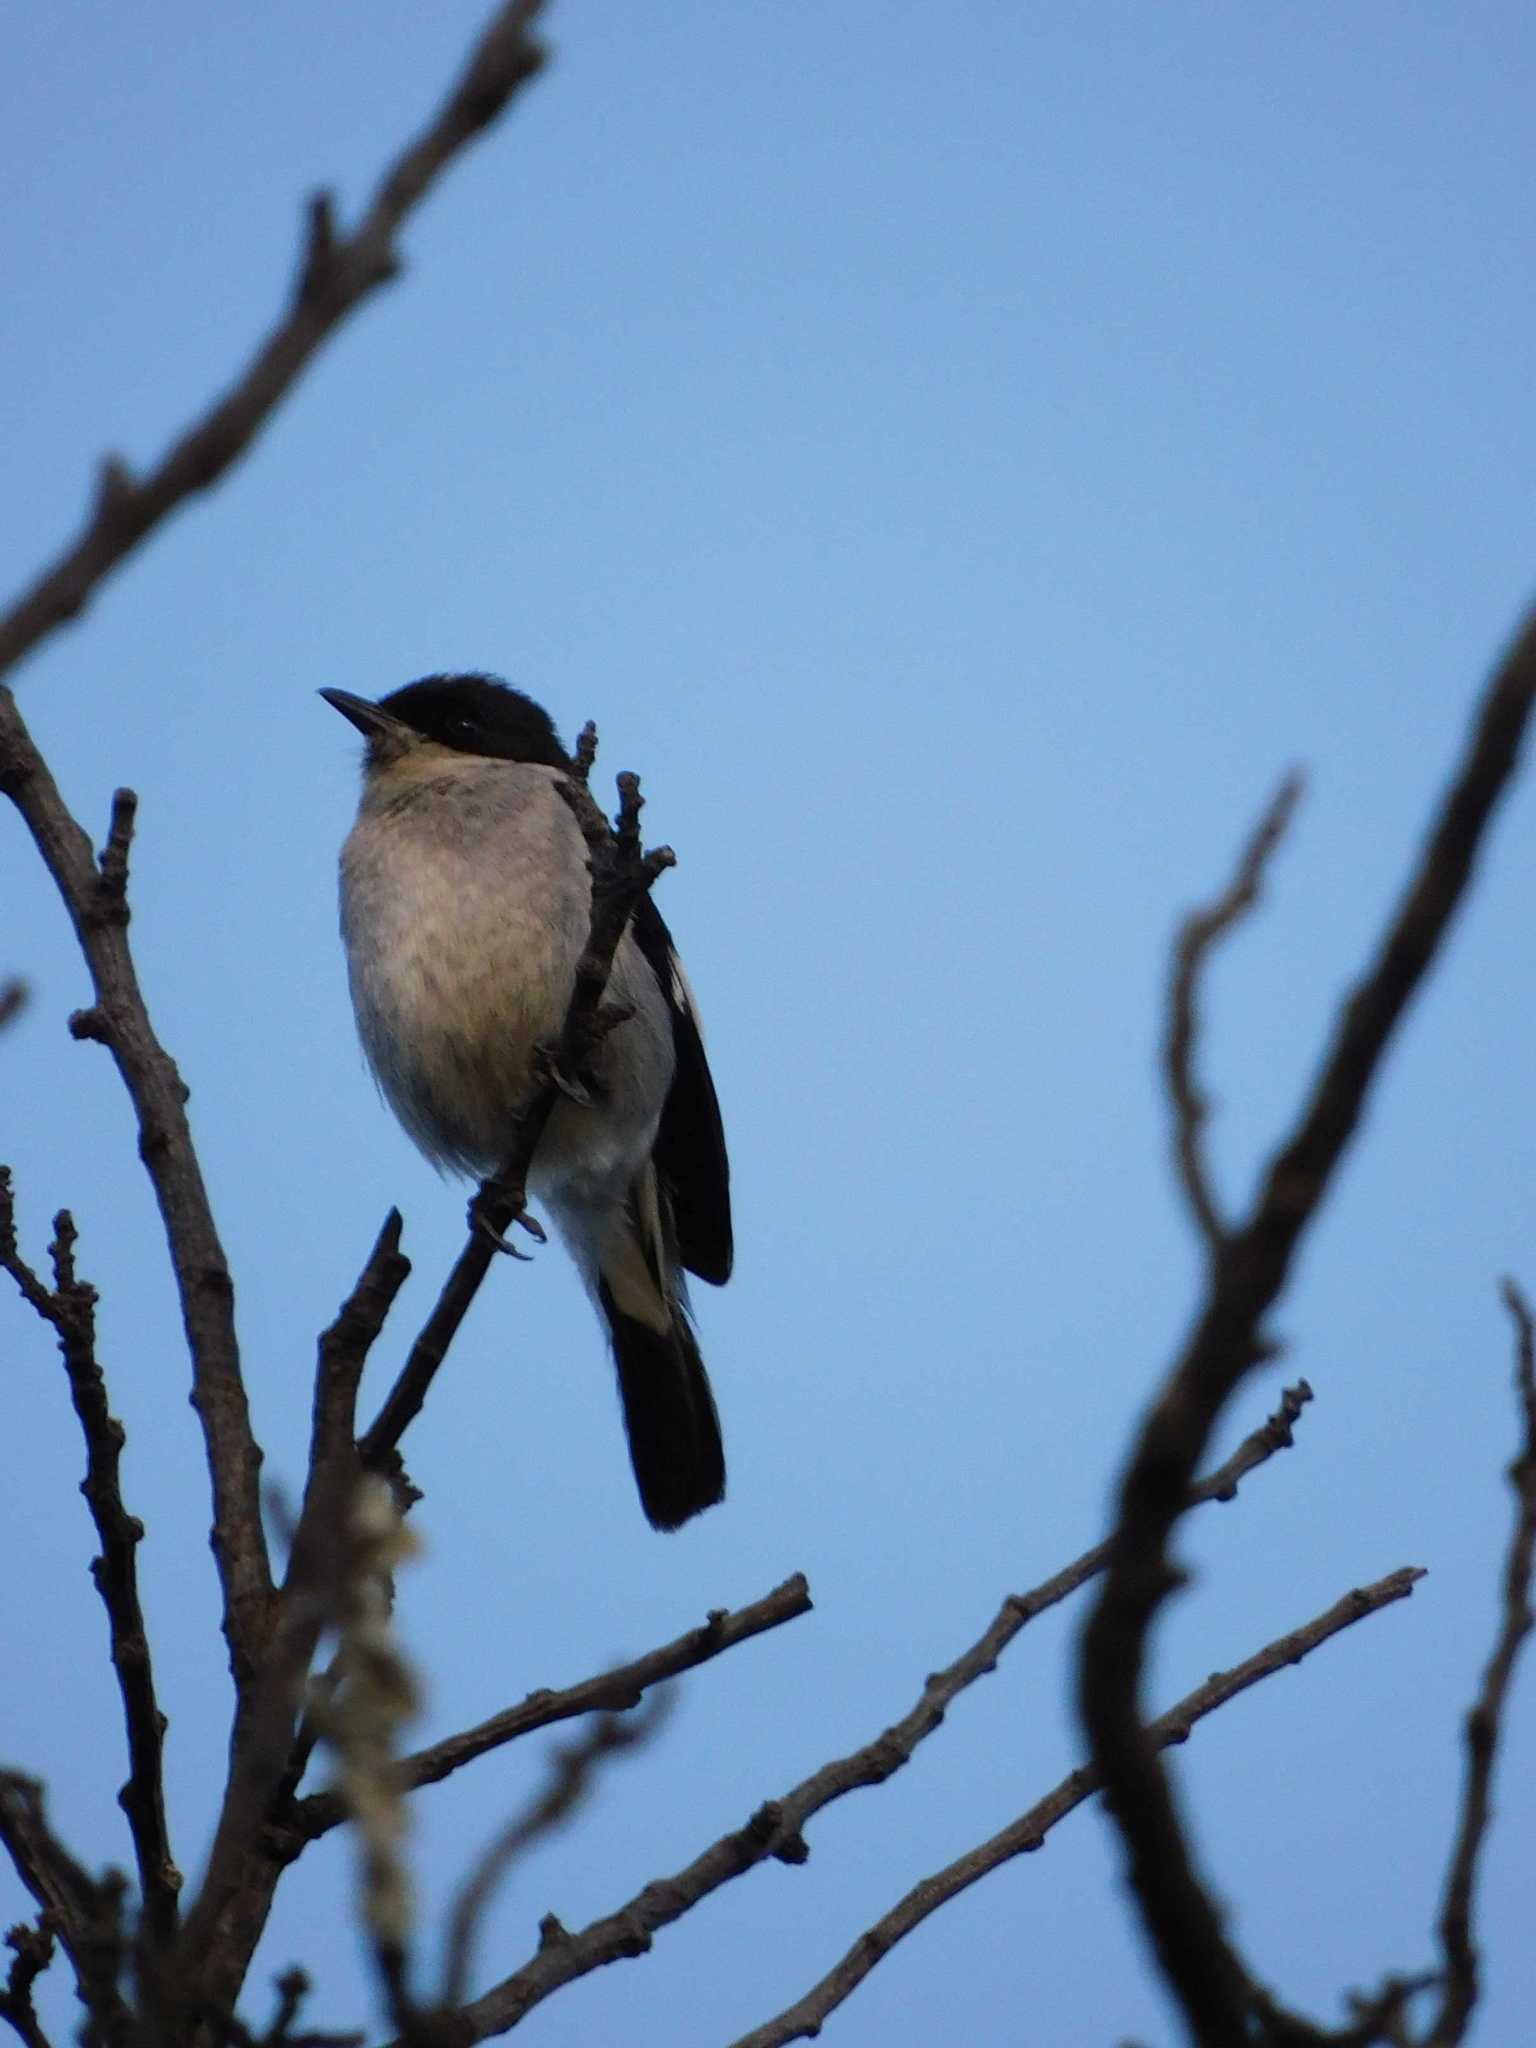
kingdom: Animalia
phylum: Chordata
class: Aves
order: Passeriformes
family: Muscicapidae
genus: Sigelus
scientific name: Sigelus silens
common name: Fiscal flycatcher
